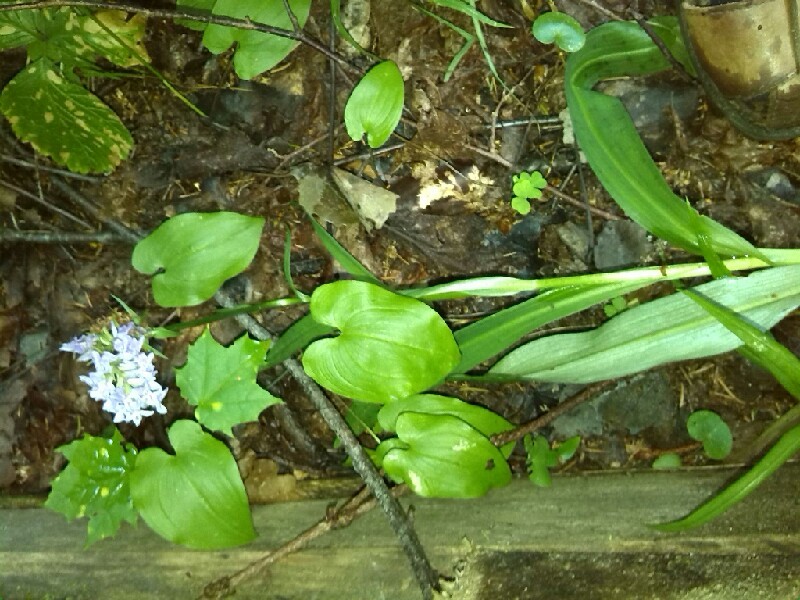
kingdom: Plantae
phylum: Tracheophyta
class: Liliopsida
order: Asparagales
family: Orchidaceae
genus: Dactylorhiza
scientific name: Dactylorhiza maculata
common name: Heath spotted-orchid
